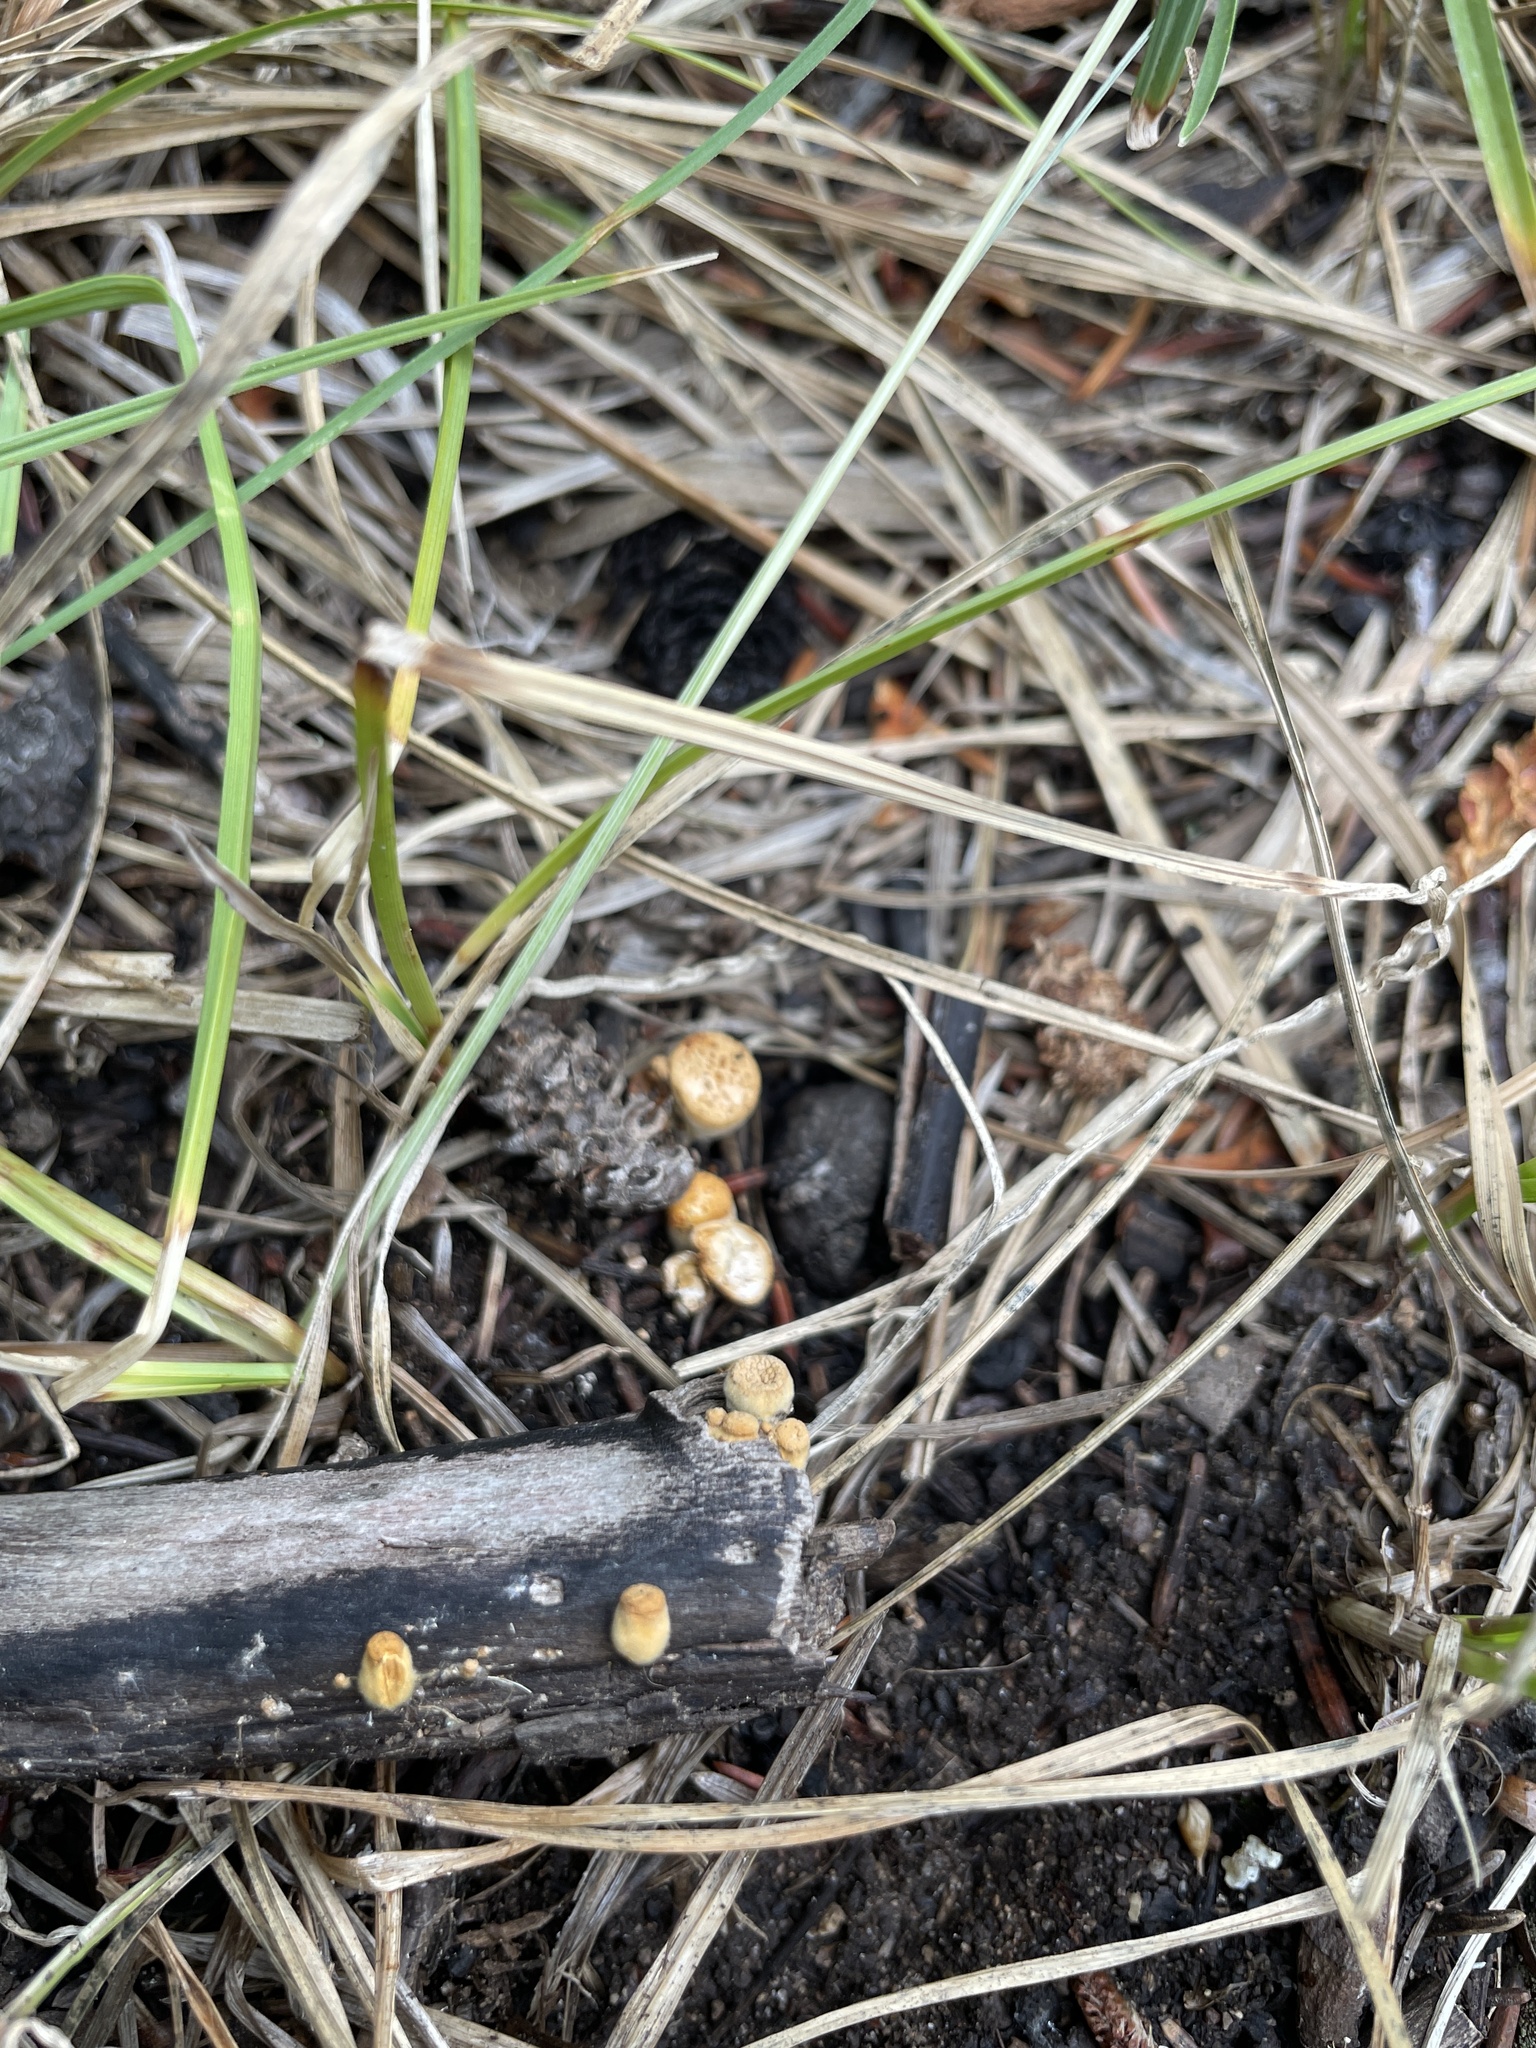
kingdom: Fungi
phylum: Basidiomycota
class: Agaricomycetes
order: Agaricales
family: Nidulariaceae
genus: Crucibulum
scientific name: Crucibulum cyathiforme
